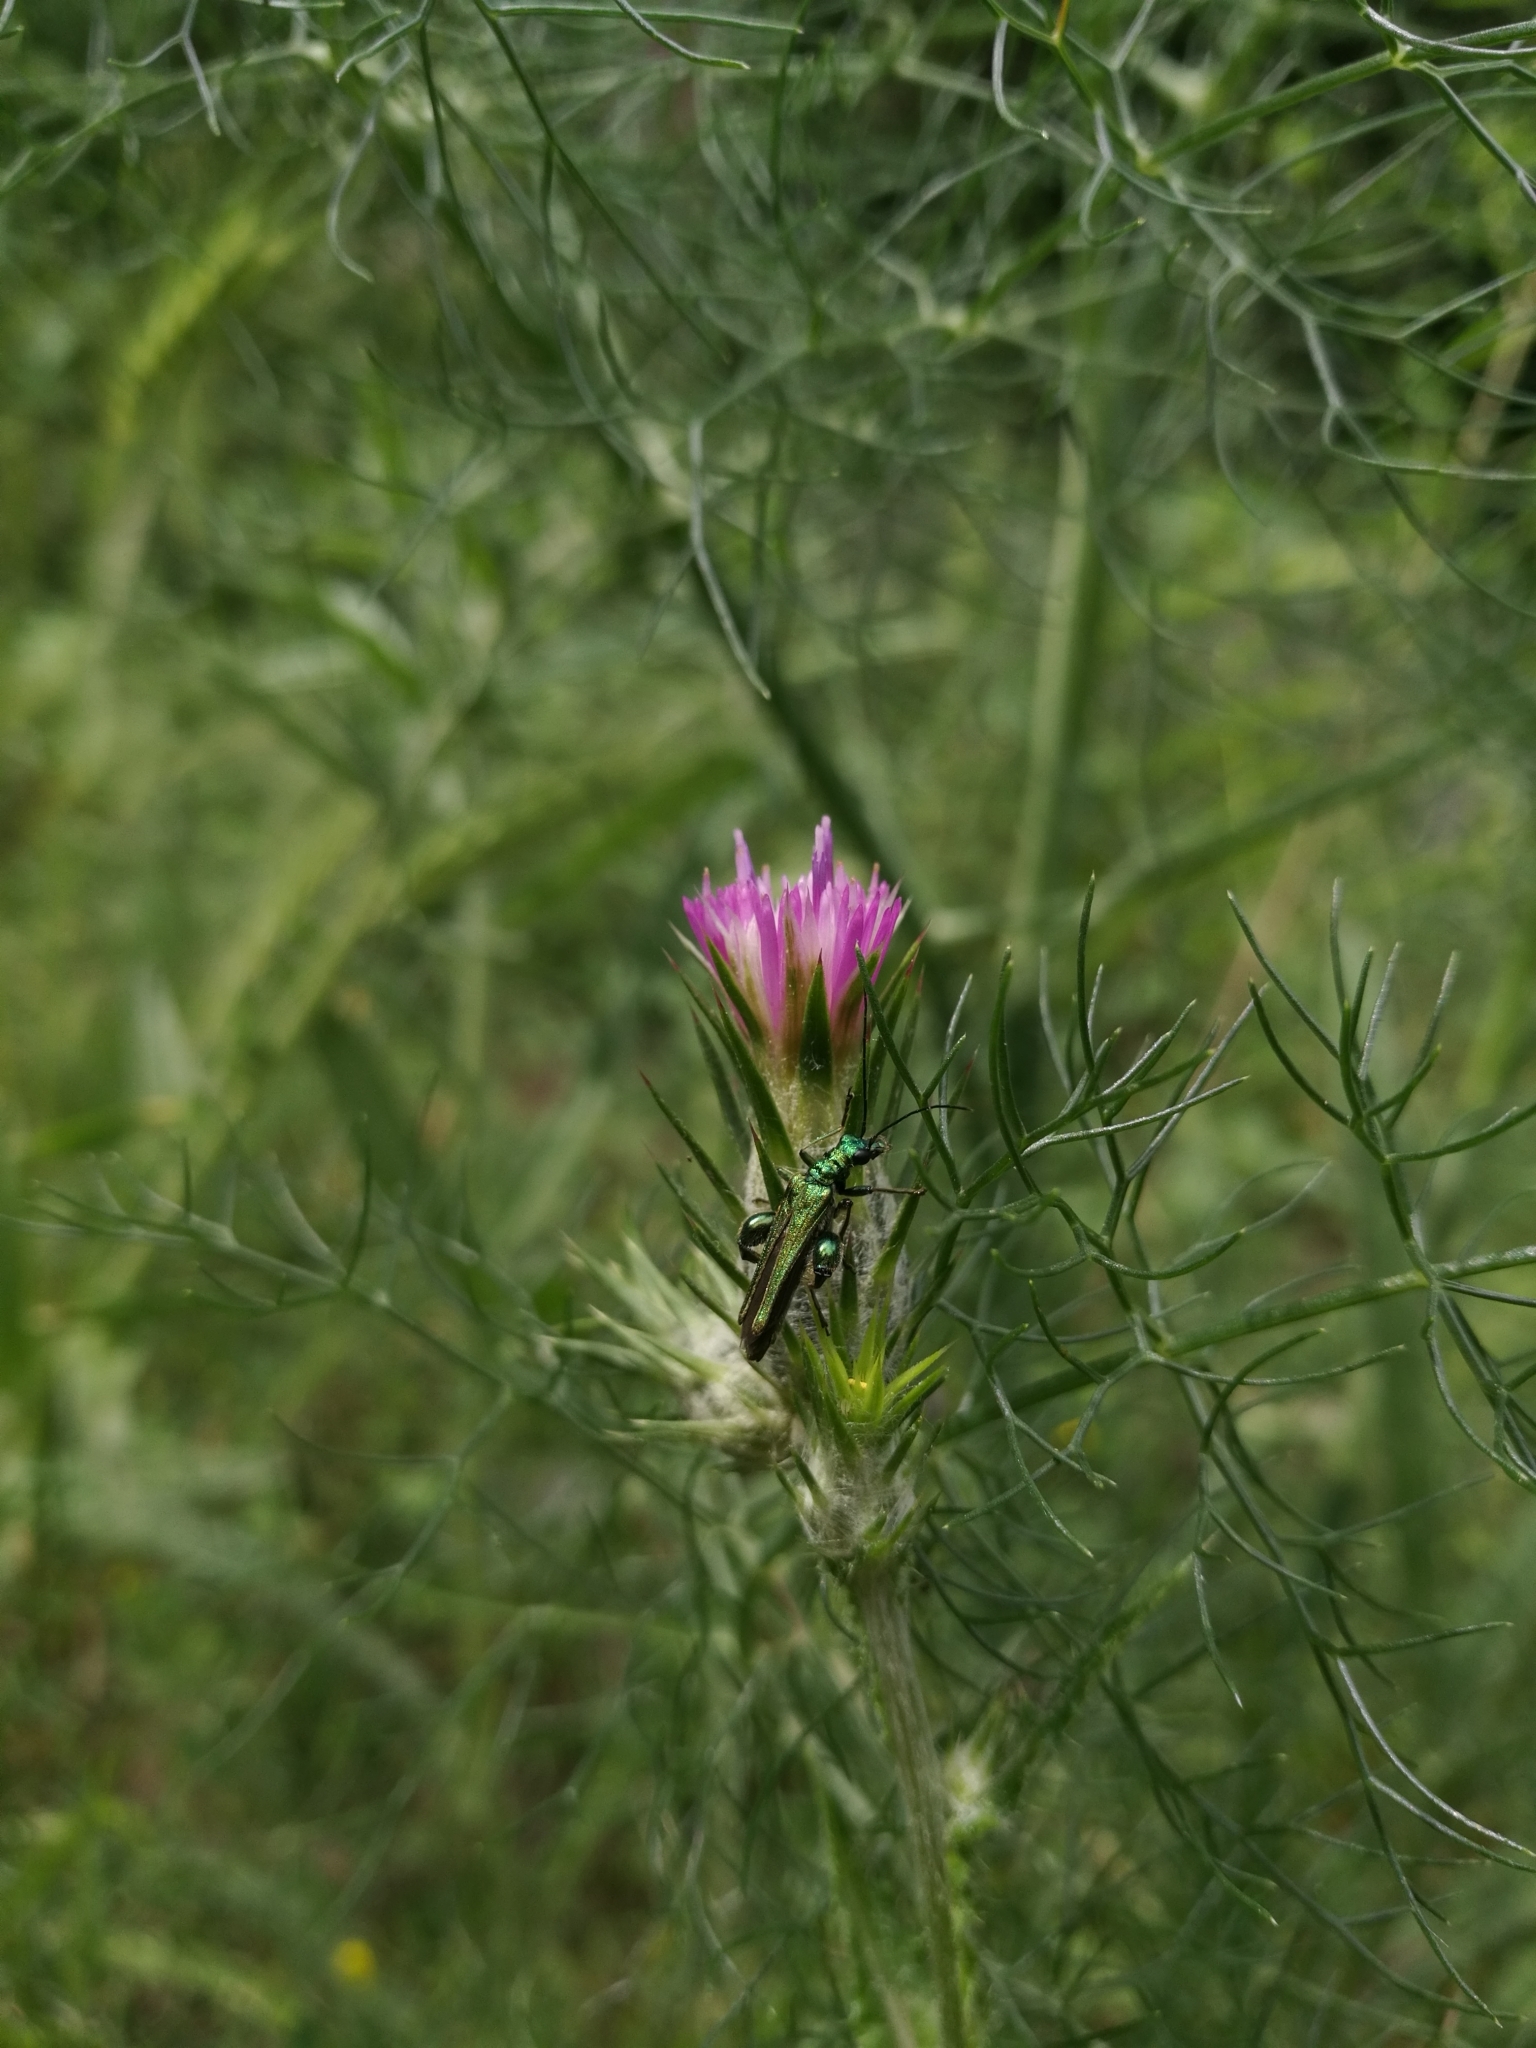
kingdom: Animalia
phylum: Arthropoda
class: Insecta
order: Coleoptera
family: Oedemeridae
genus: Oedemera
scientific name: Oedemera nobilis
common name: Swollen-thighed beetle
